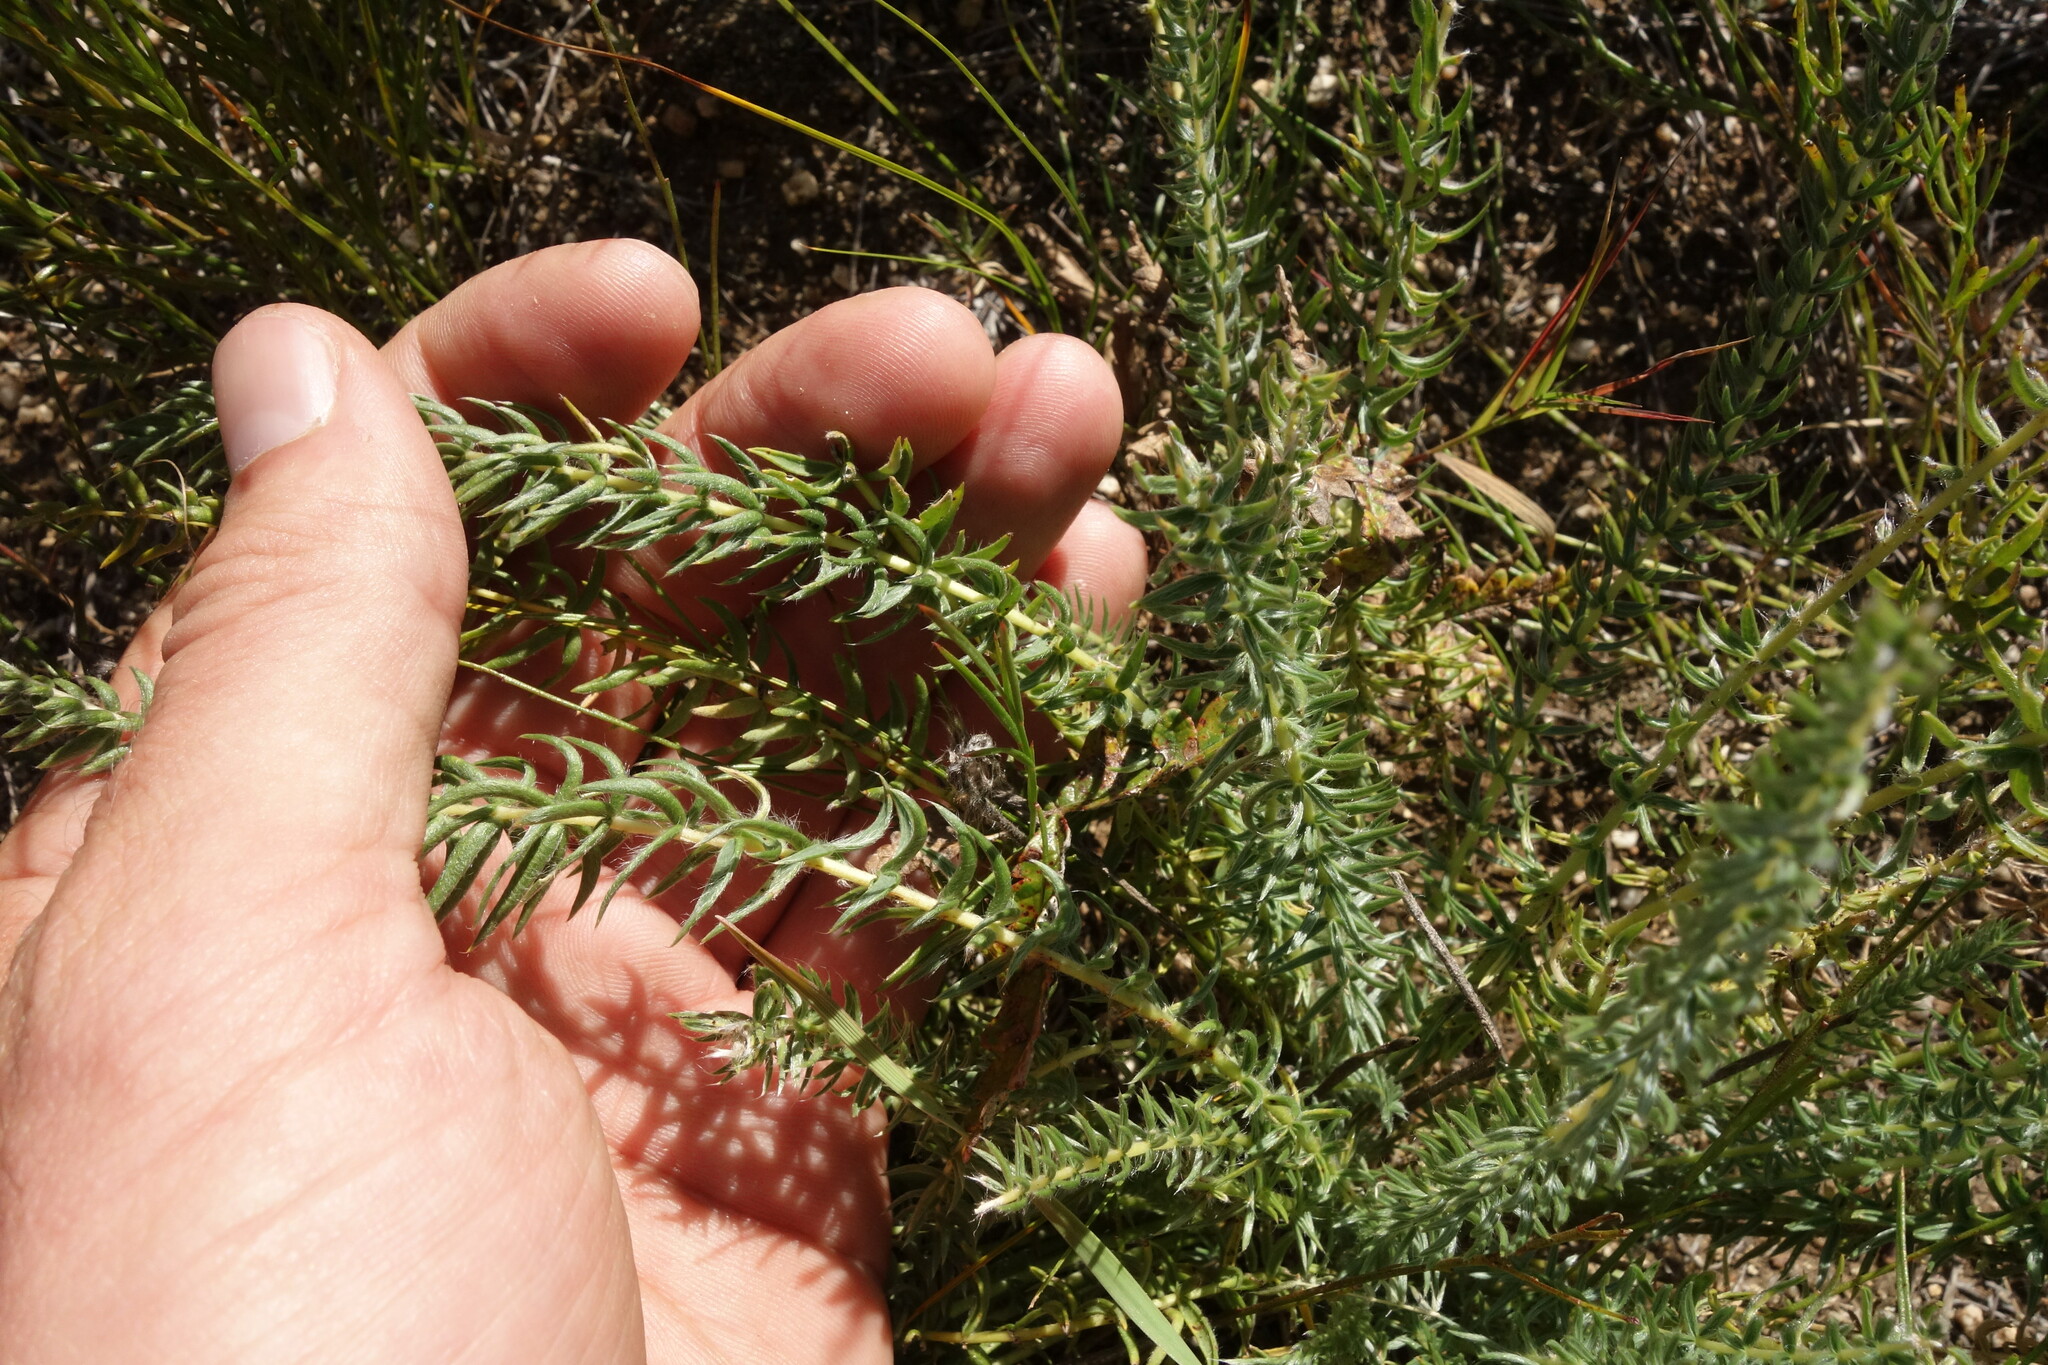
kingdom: Plantae
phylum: Tracheophyta
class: Magnoliopsida
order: Fabales
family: Fabaceae
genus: Oxytropis
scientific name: Oxytropis myriophylla
